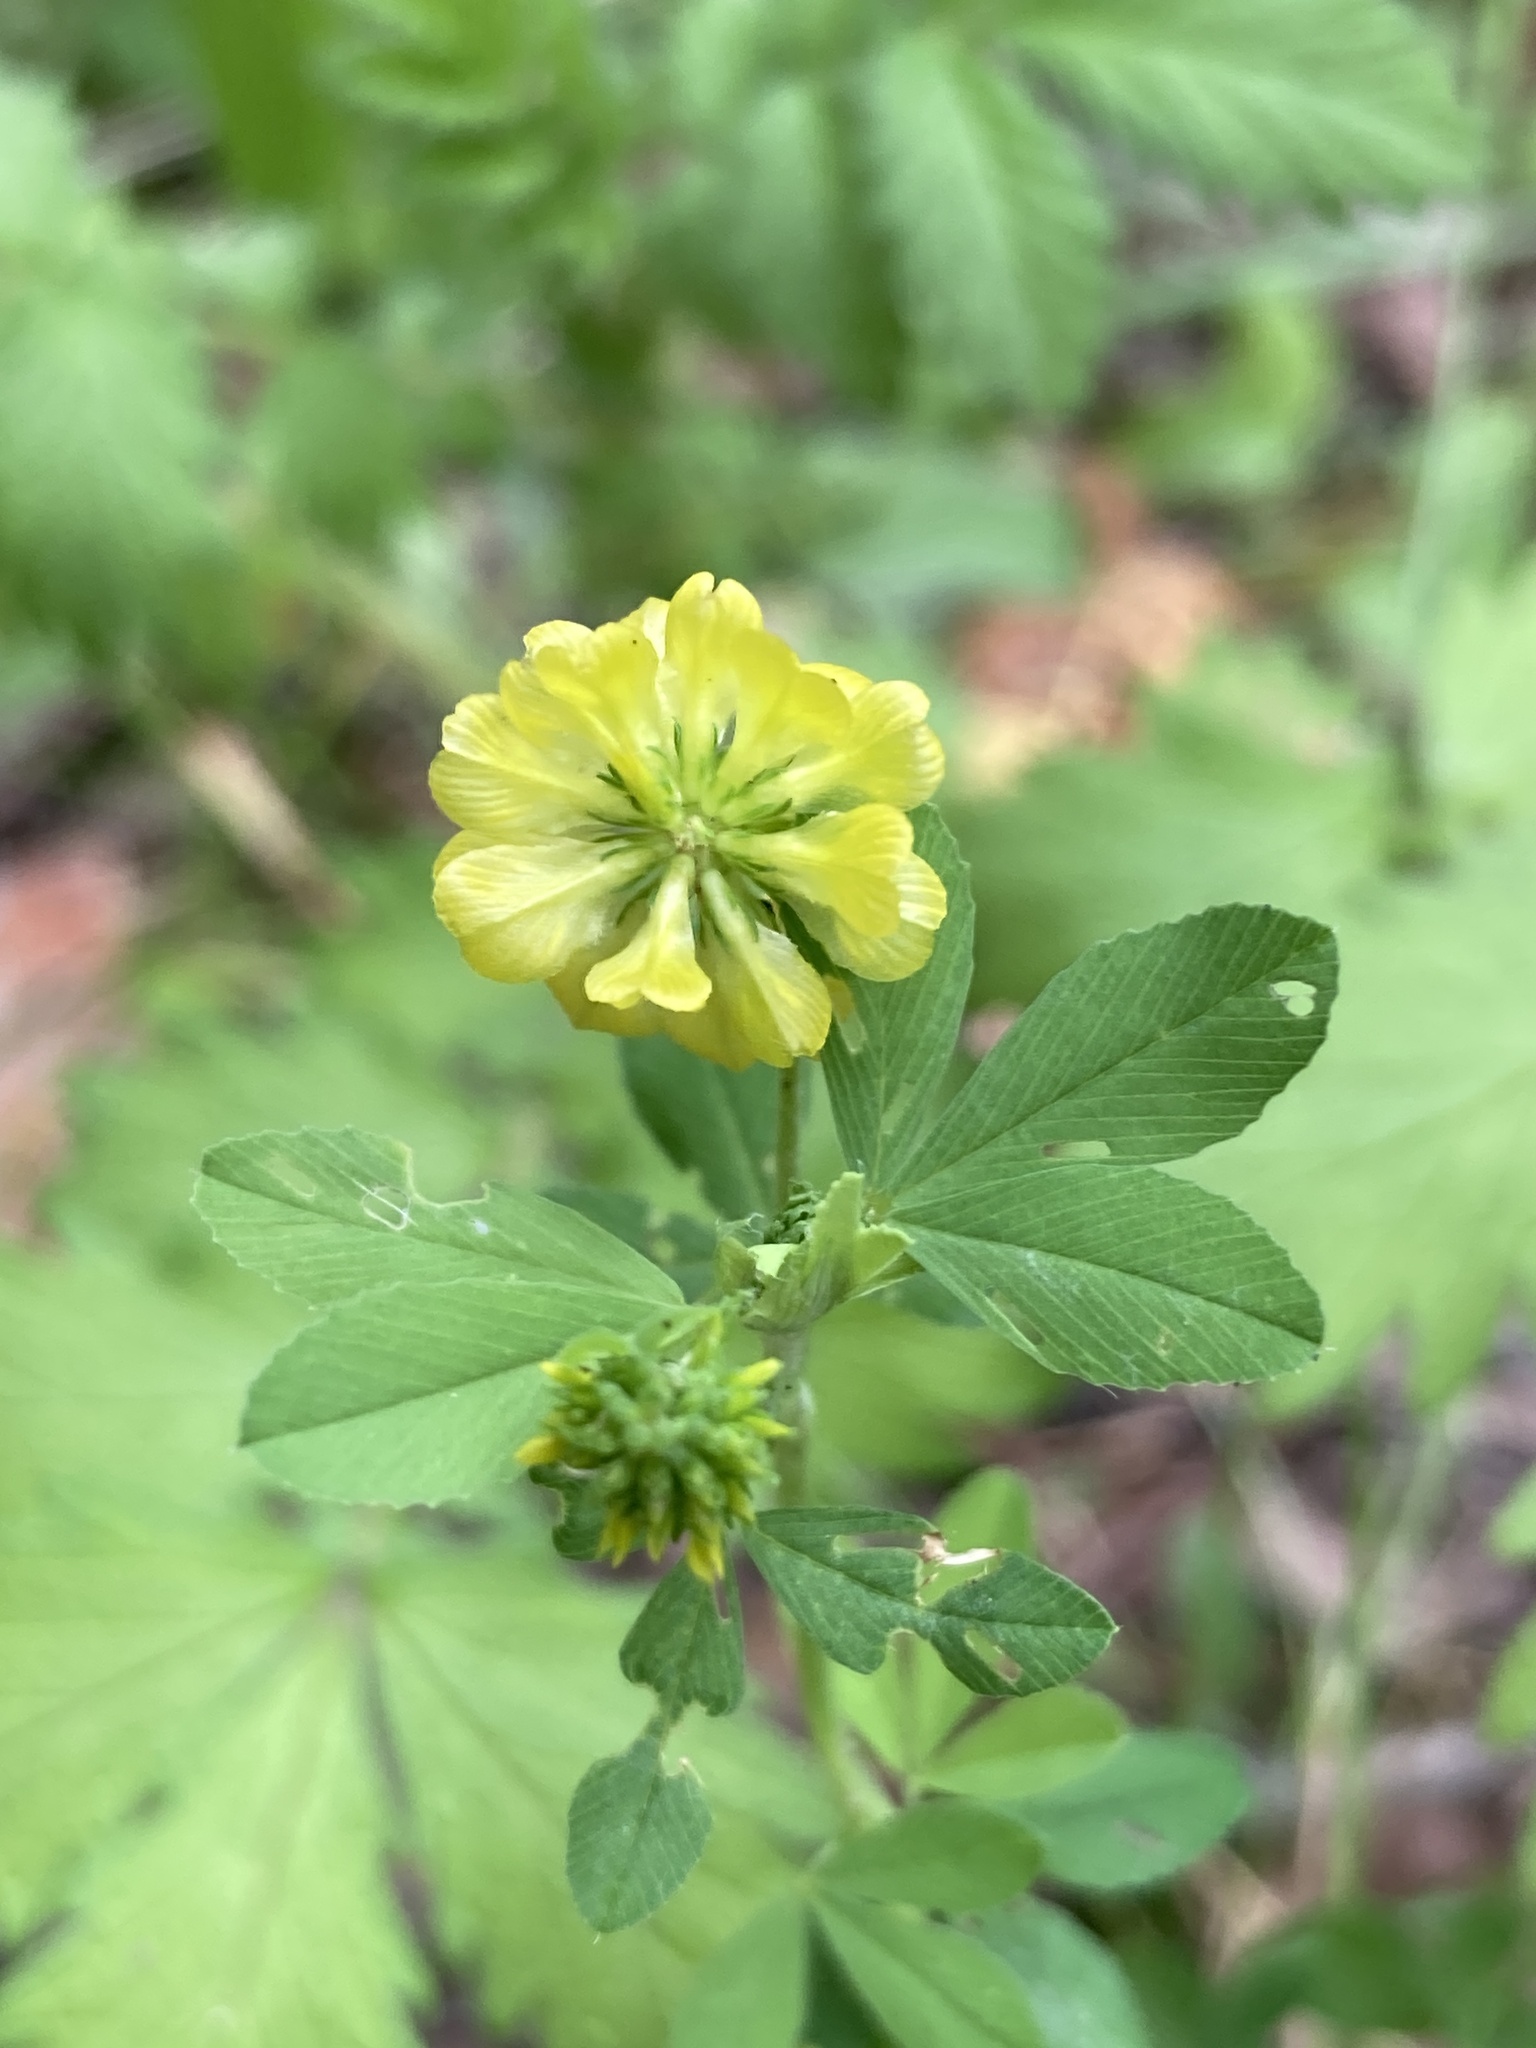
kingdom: Plantae
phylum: Tracheophyta
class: Magnoliopsida
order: Fabales
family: Fabaceae
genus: Trifolium
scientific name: Trifolium aureum
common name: Golden clover
